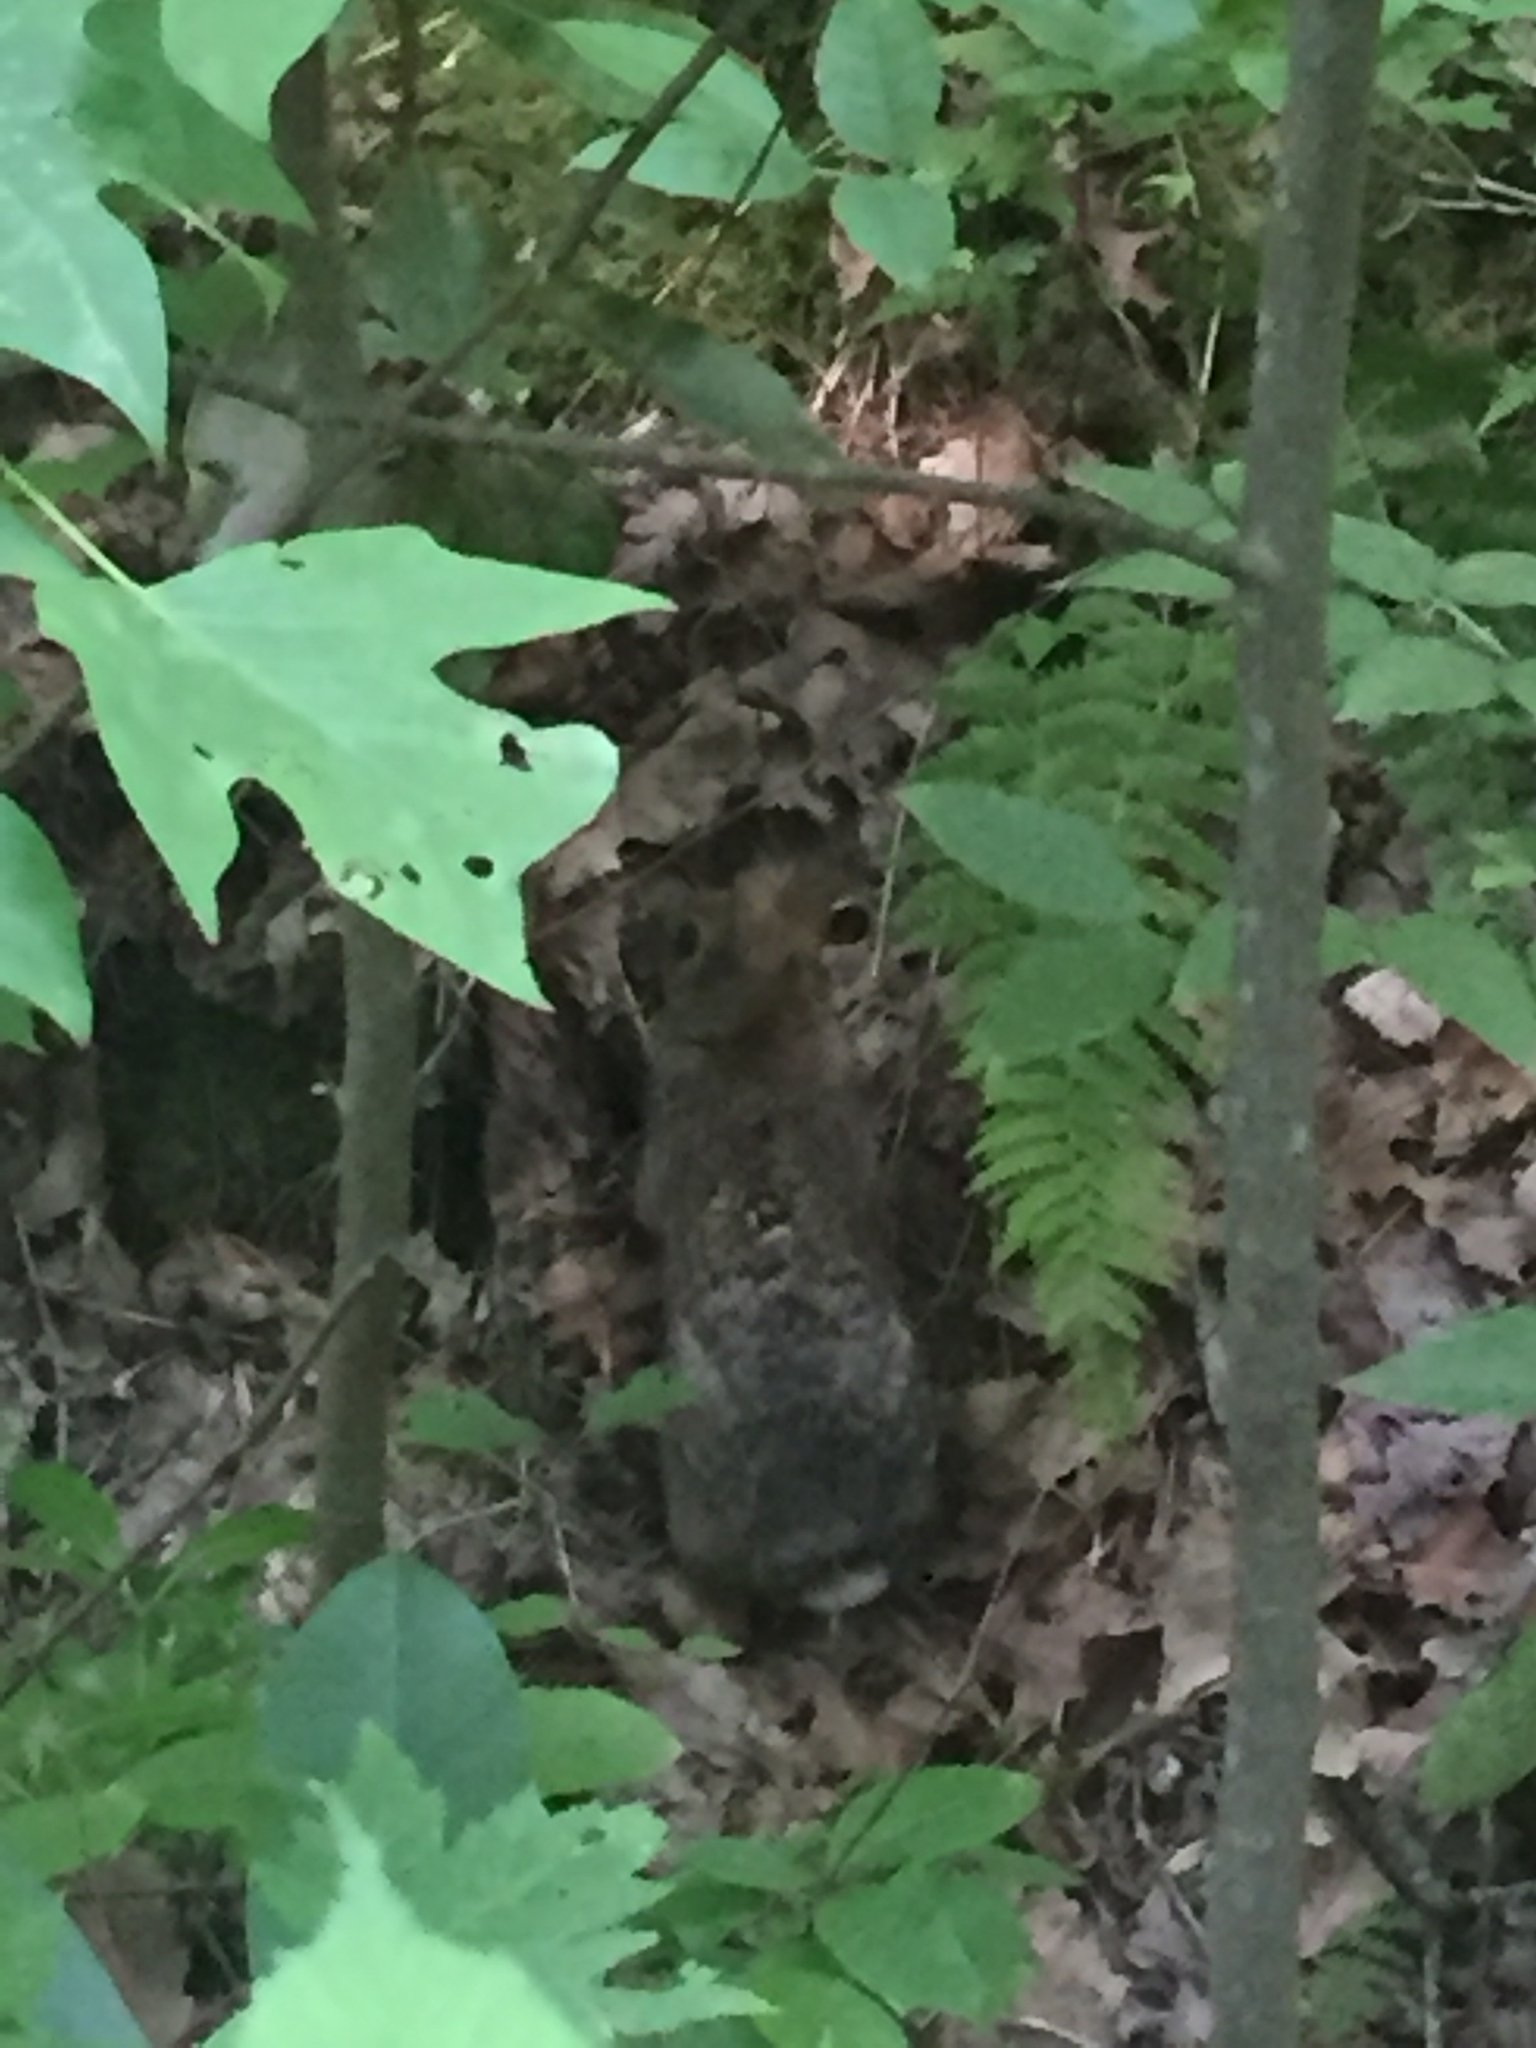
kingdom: Animalia
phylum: Chordata
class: Mammalia
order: Lagomorpha
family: Leporidae
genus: Sylvilagus
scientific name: Sylvilagus obscurus
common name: Appalachian cottontail
